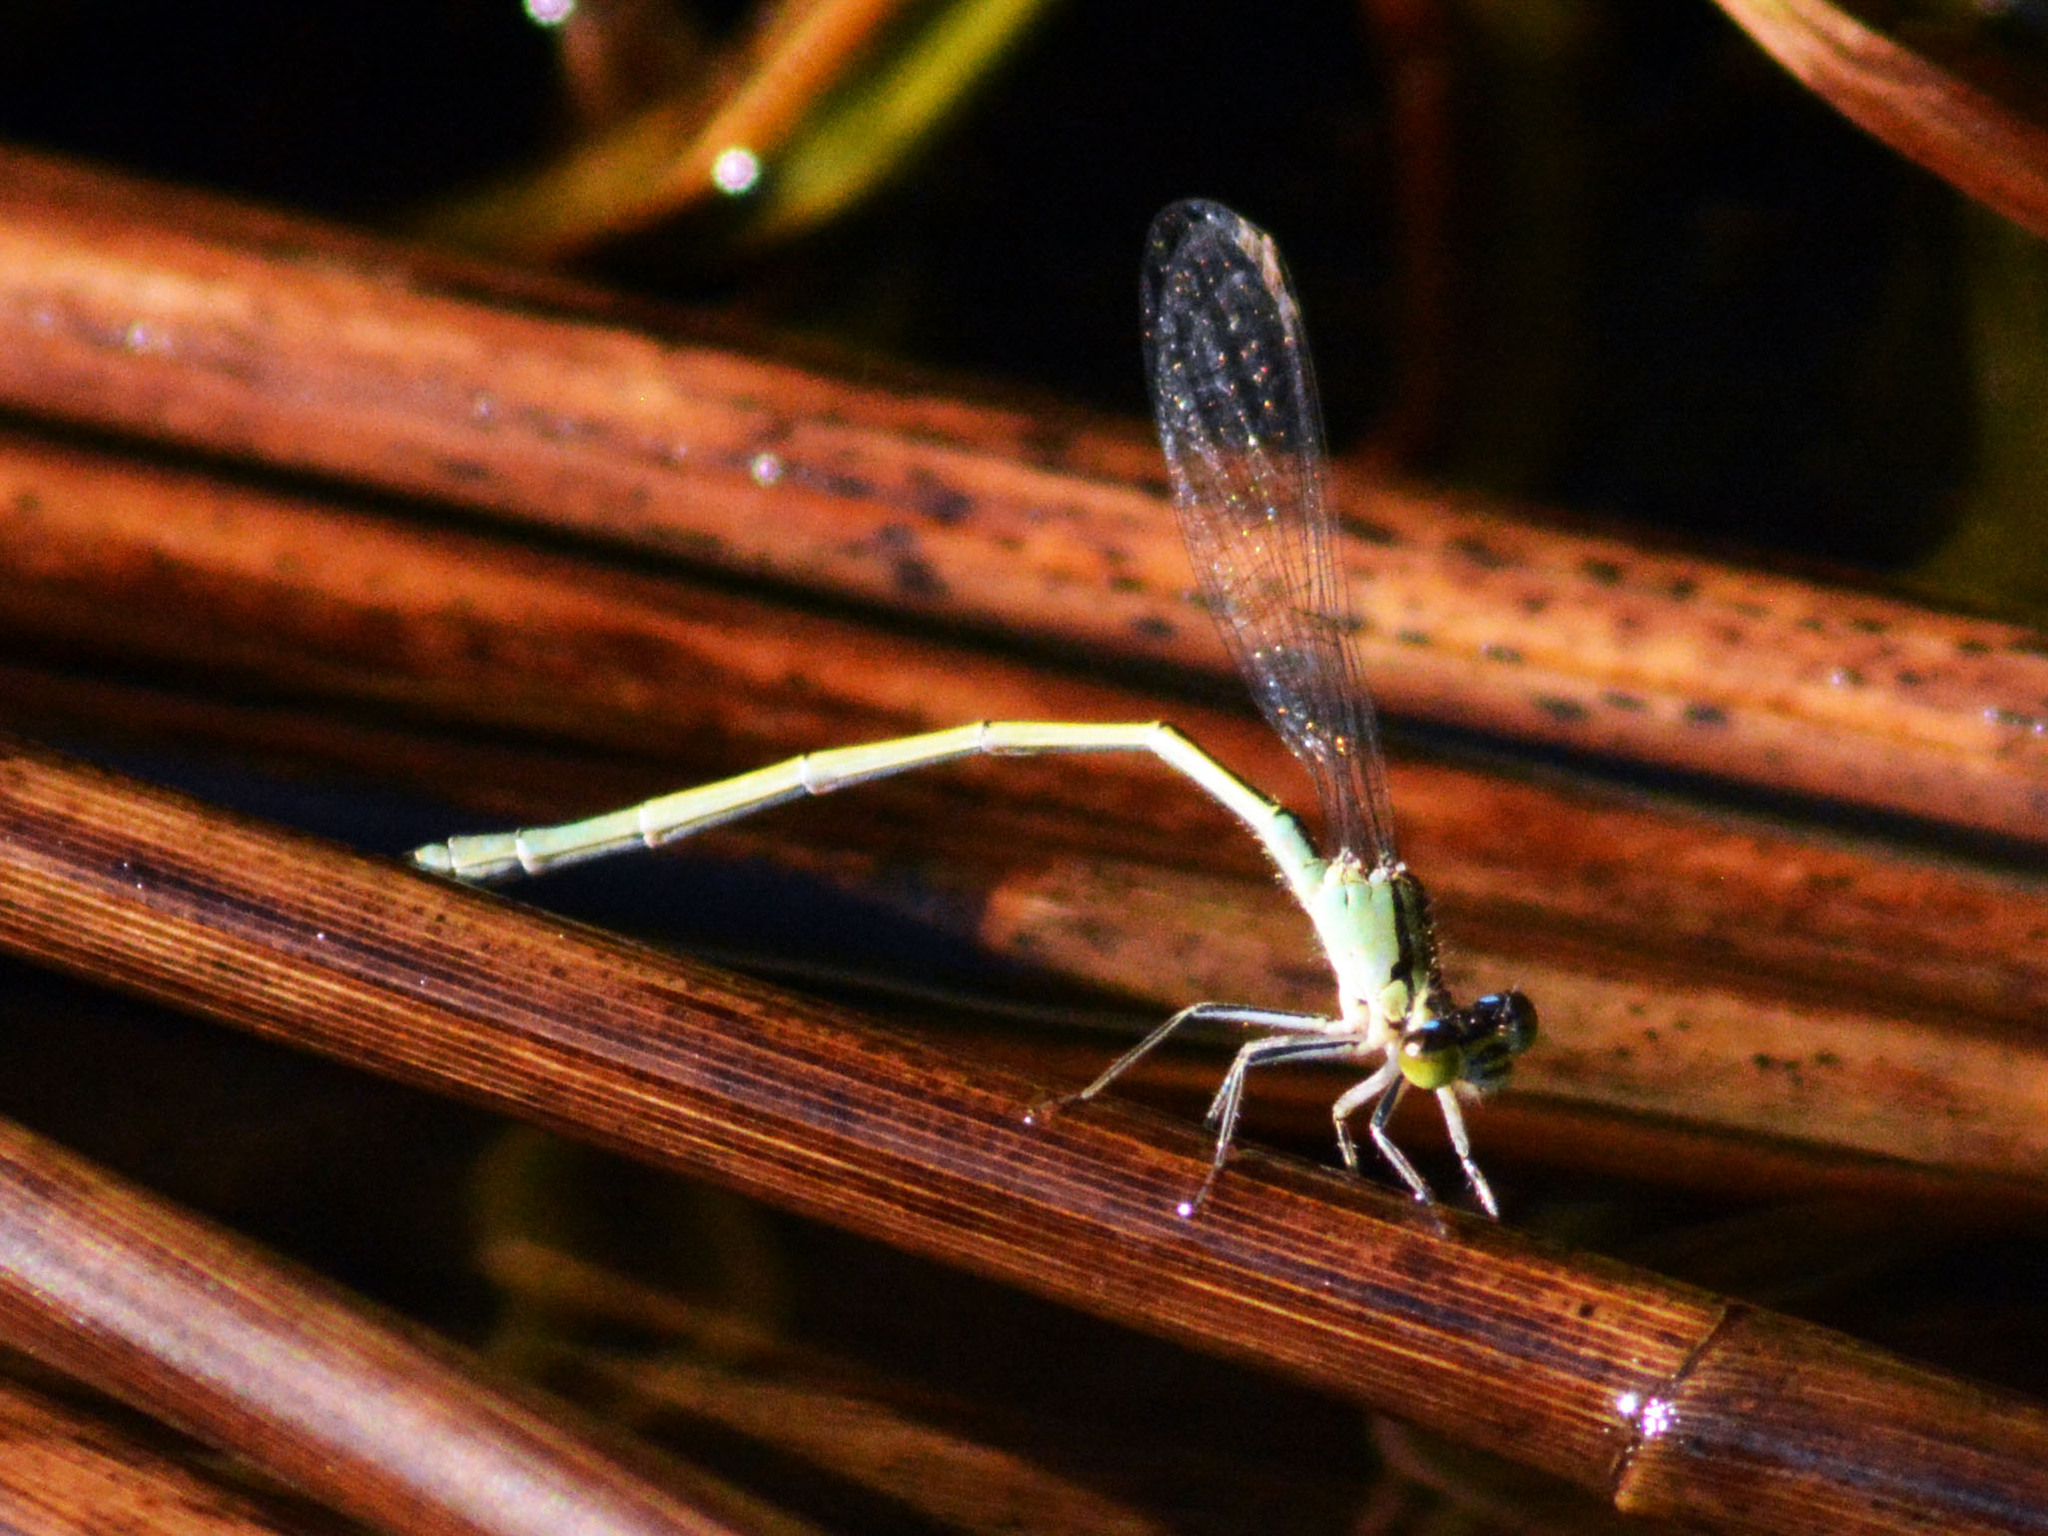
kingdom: Animalia
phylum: Arthropoda
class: Insecta
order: Odonata
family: Coenagrionidae
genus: Ischnura
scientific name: Ischnura elegans
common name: Blue-tailed damselfly
